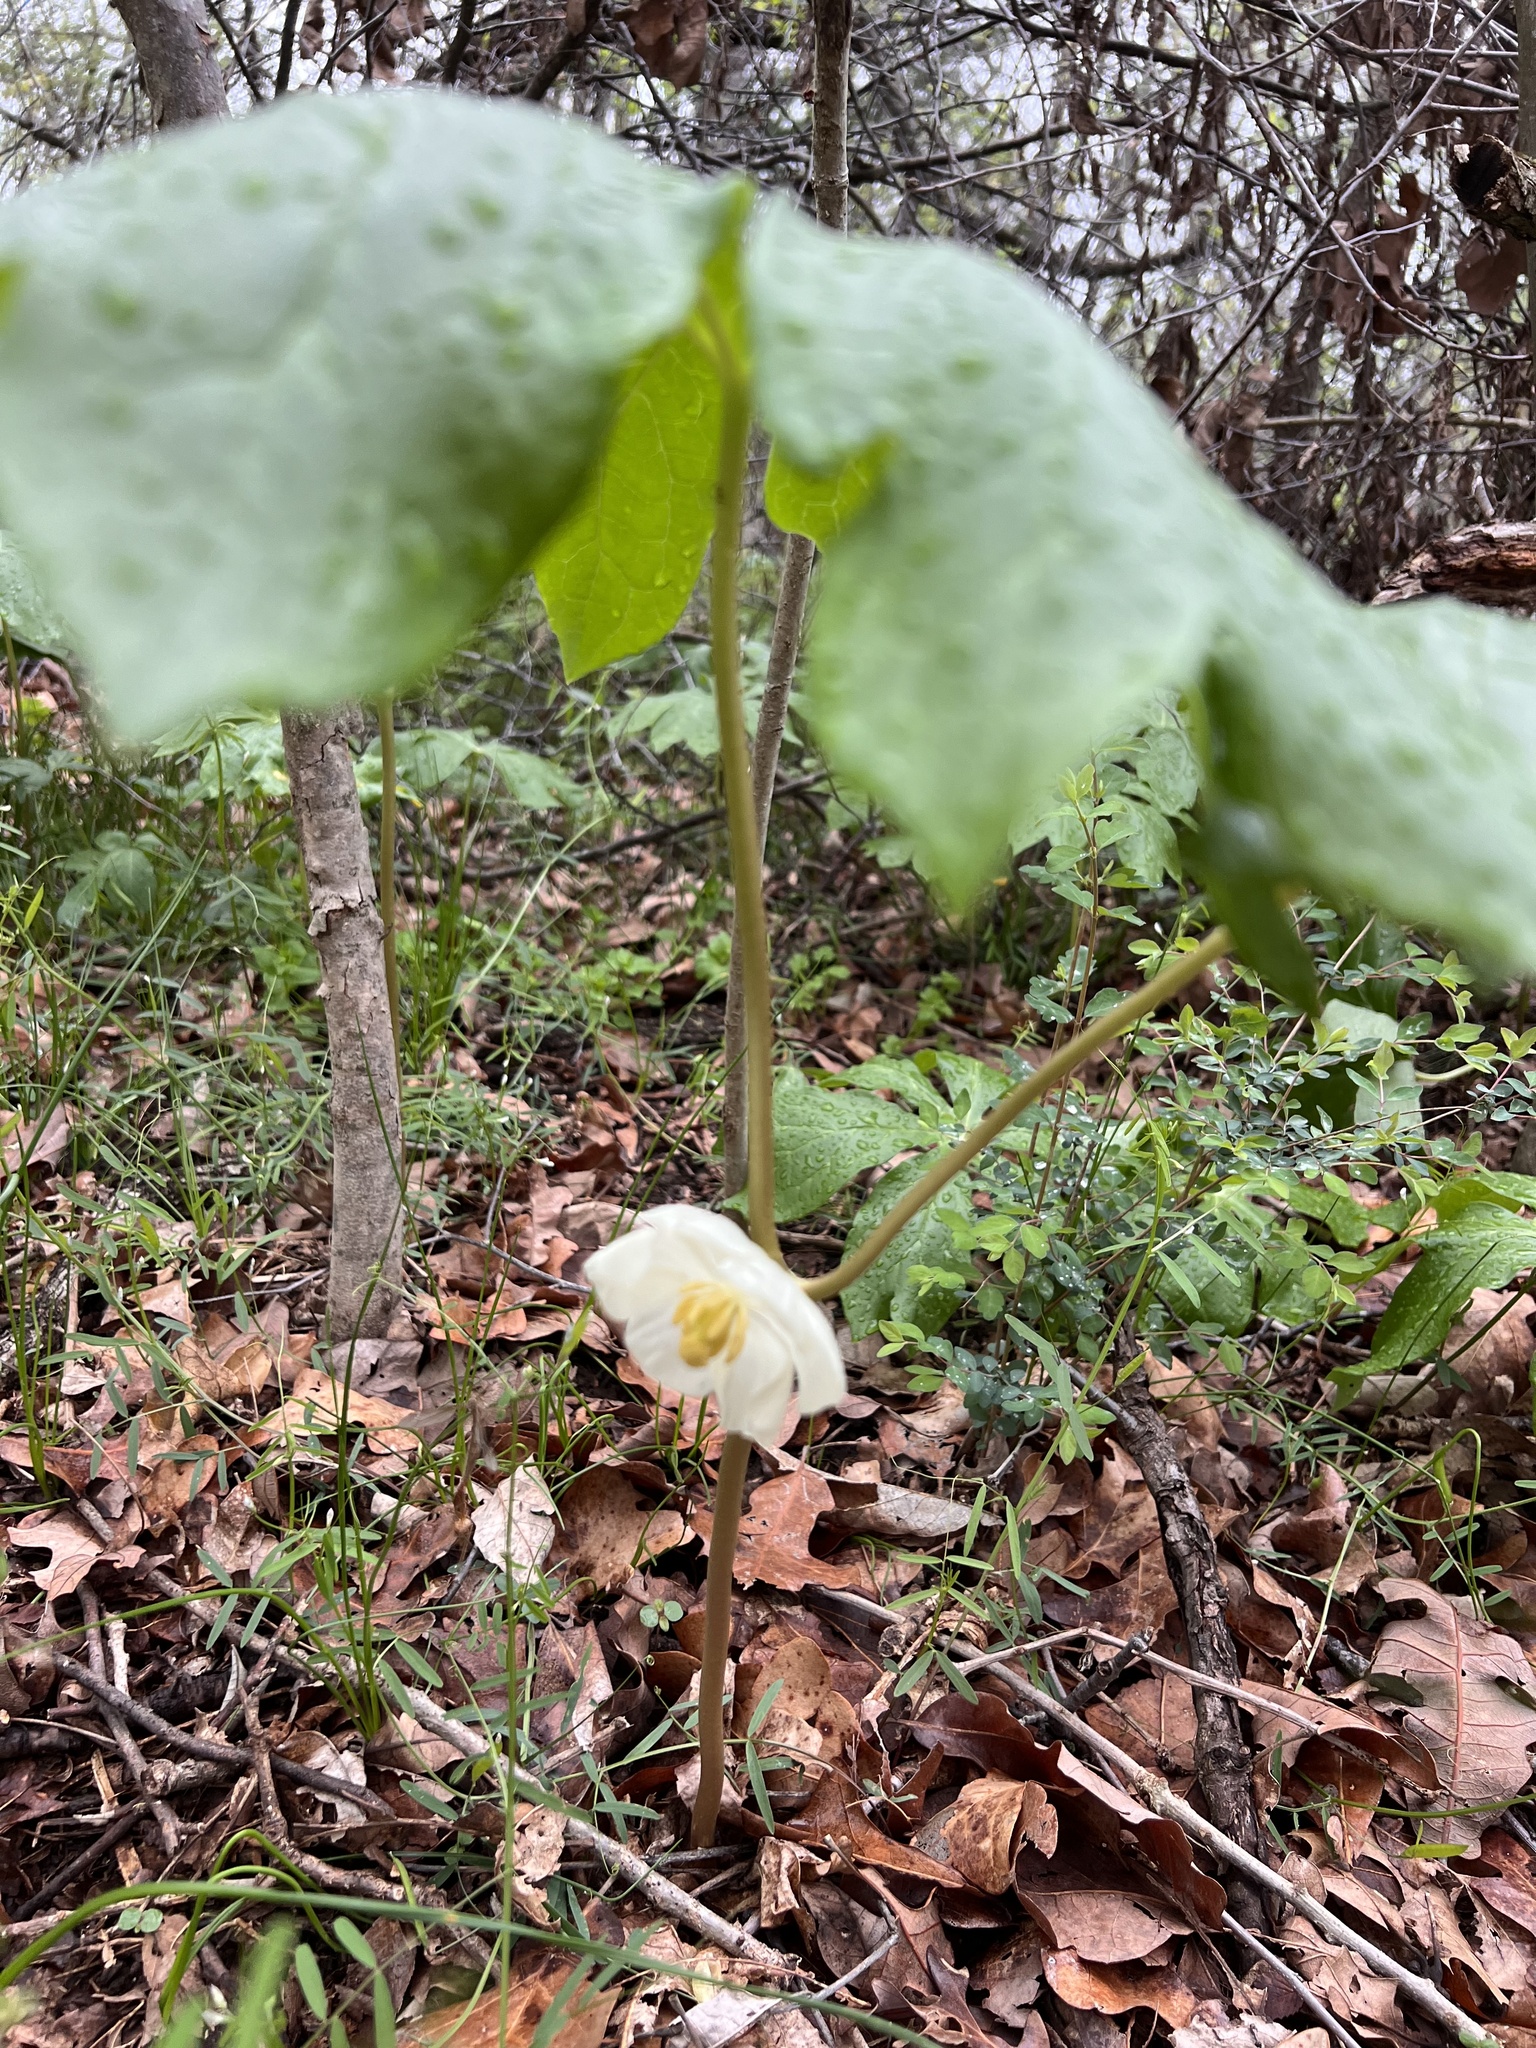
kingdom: Plantae
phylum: Tracheophyta
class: Magnoliopsida
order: Ranunculales
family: Berberidaceae
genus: Podophyllum
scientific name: Podophyllum peltatum
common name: Wild mandrake
